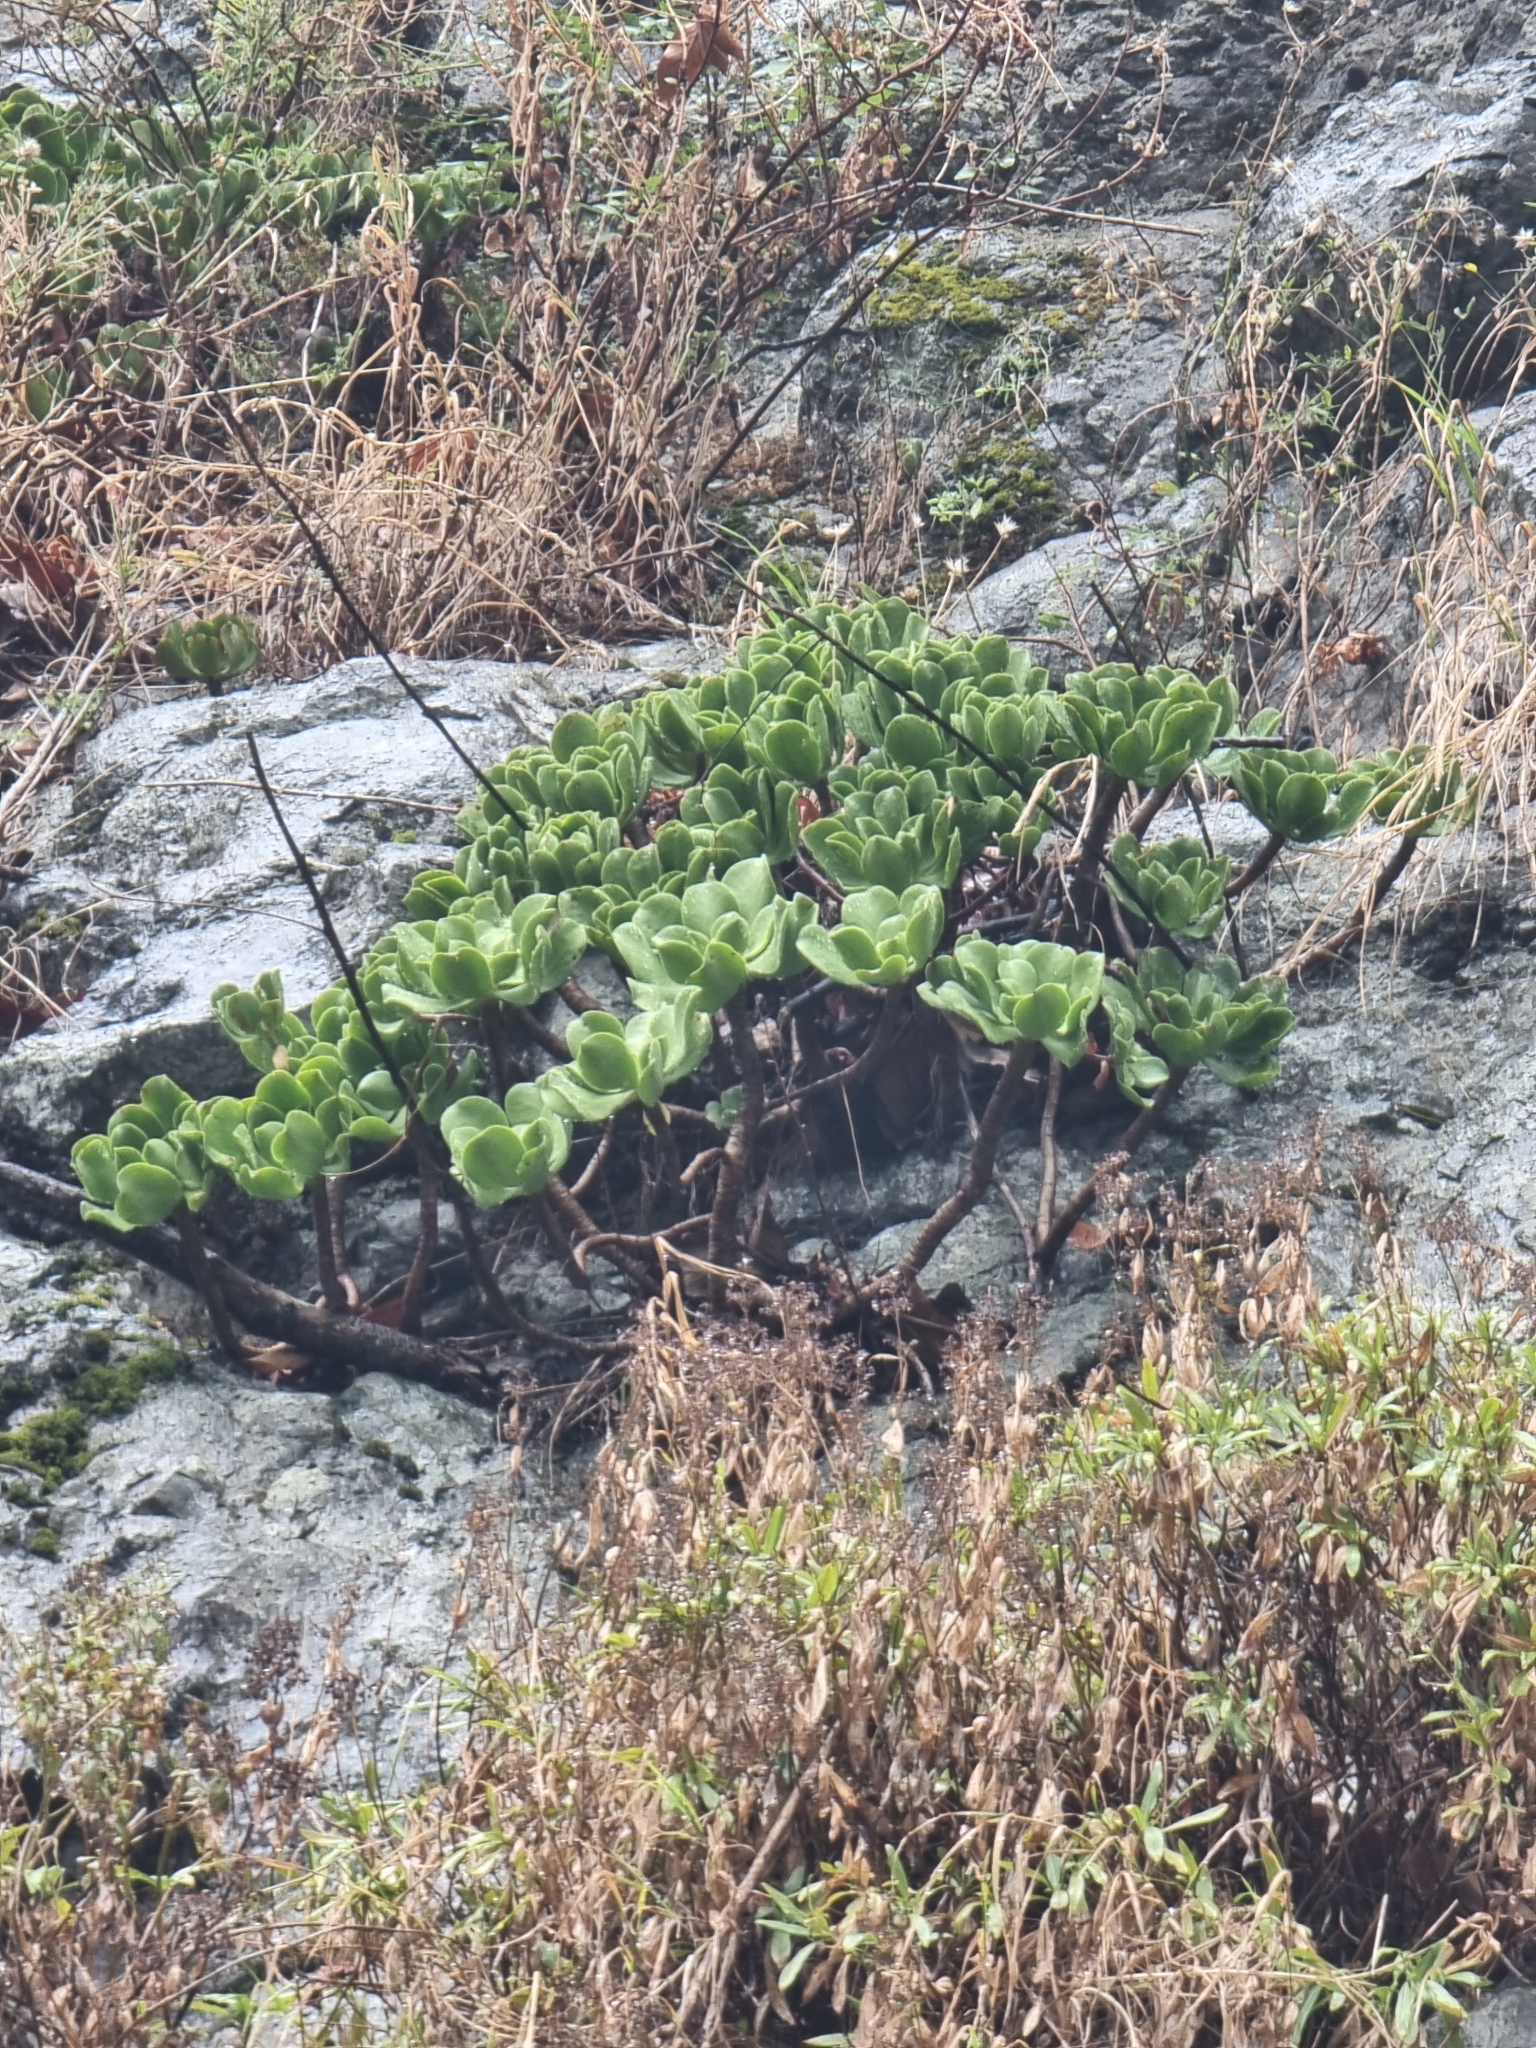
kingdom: Plantae
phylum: Tracheophyta
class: Magnoliopsida
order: Saxifragales
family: Crassulaceae
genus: Aeonium
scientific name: Aeonium glutinosum
